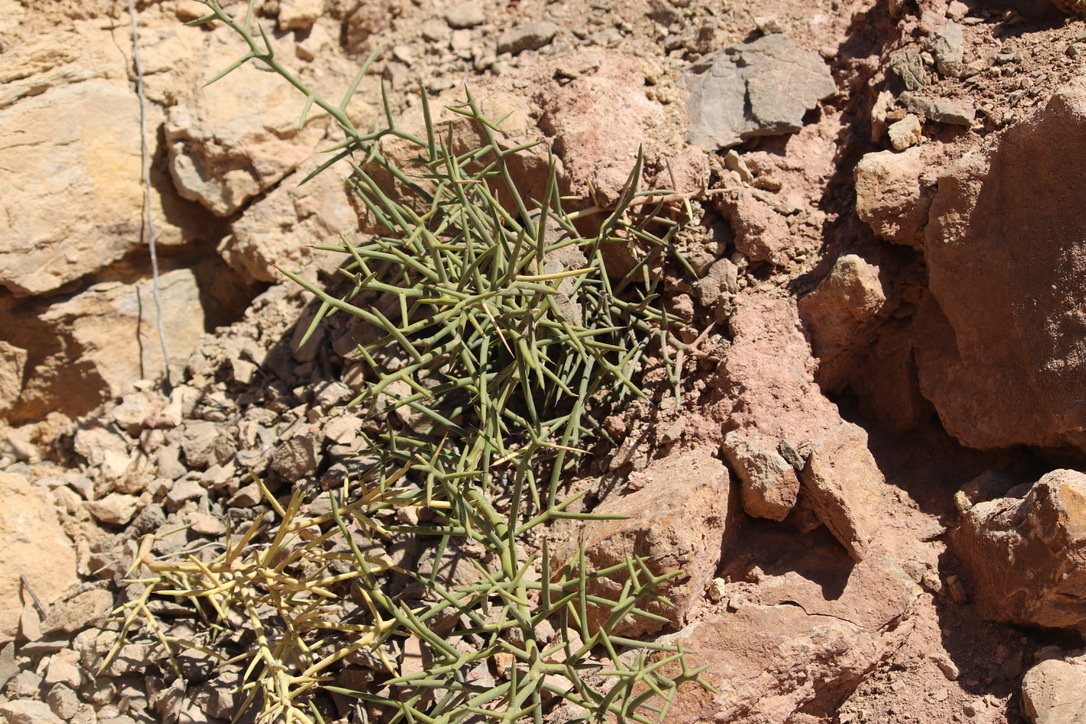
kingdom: Plantae
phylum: Tracheophyta
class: Magnoliopsida
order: Brassicales
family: Koeberliniaceae
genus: Koeberlinia
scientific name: Koeberlinia spinosa
